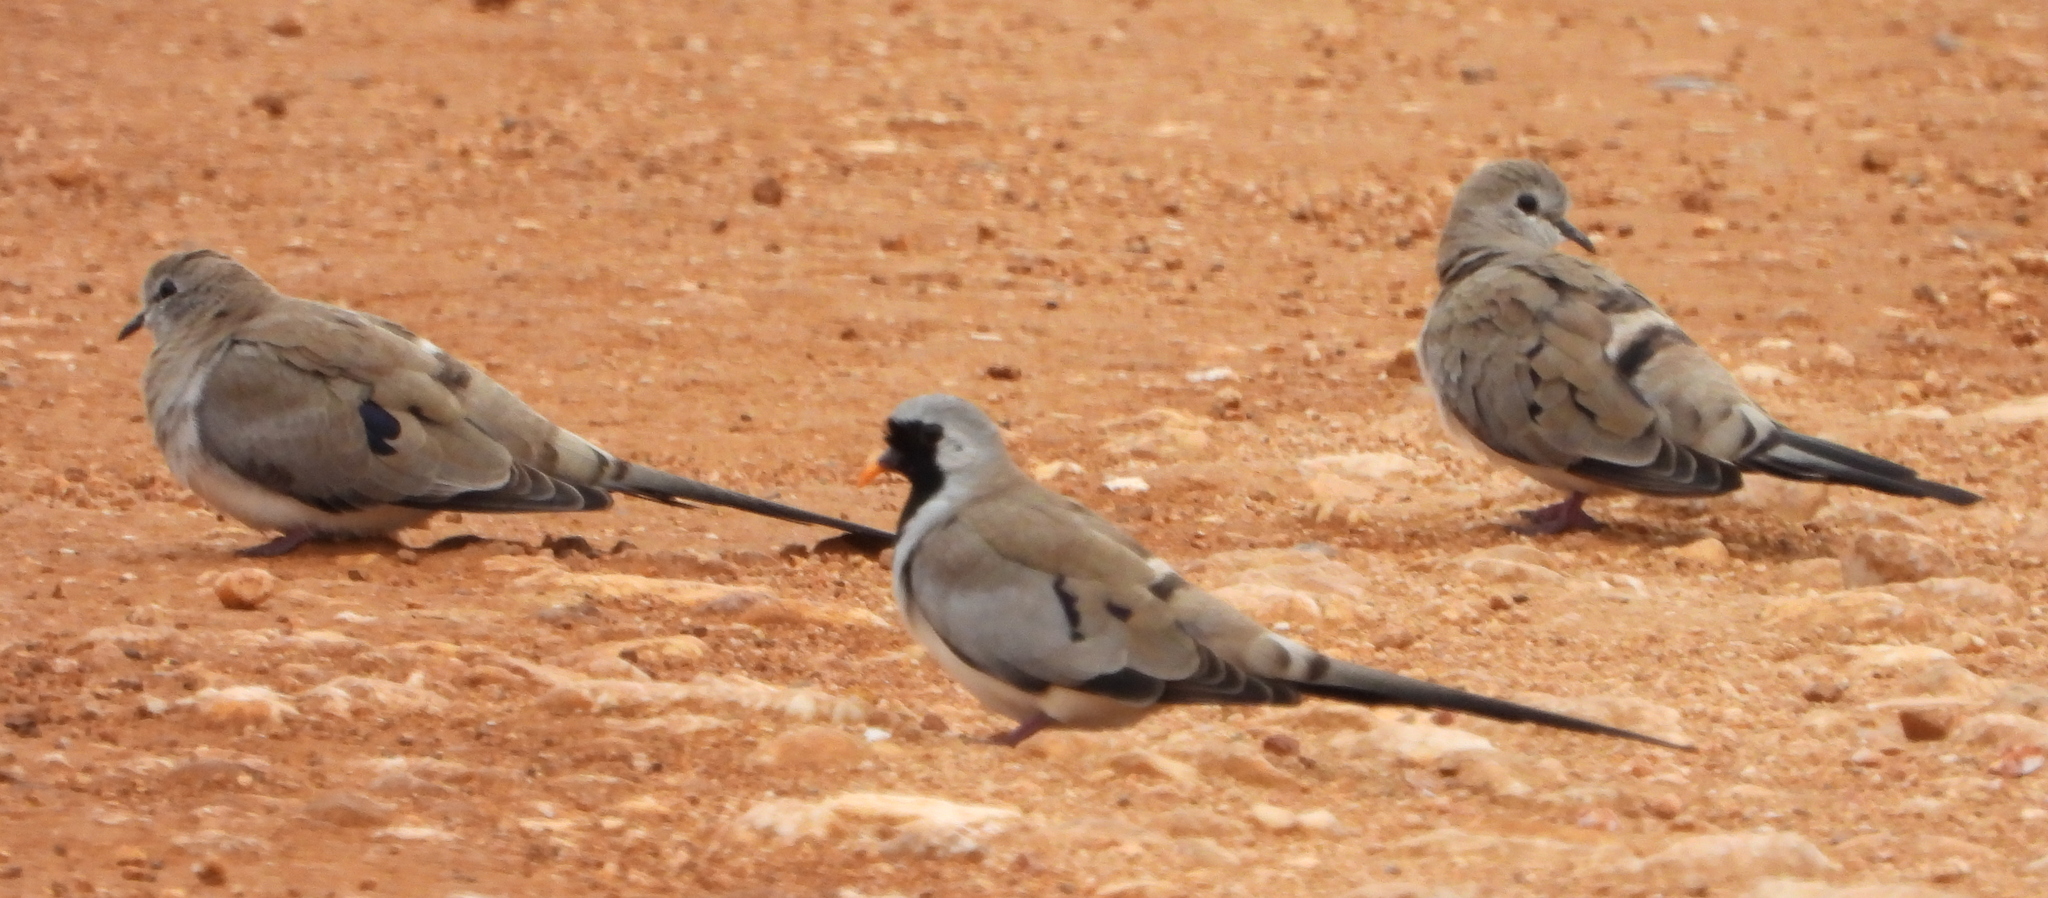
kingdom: Animalia
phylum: Chordata
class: Aves
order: Columbiformes
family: Columbidae
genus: Oena
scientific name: Oena capensis
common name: Namaqua dove
